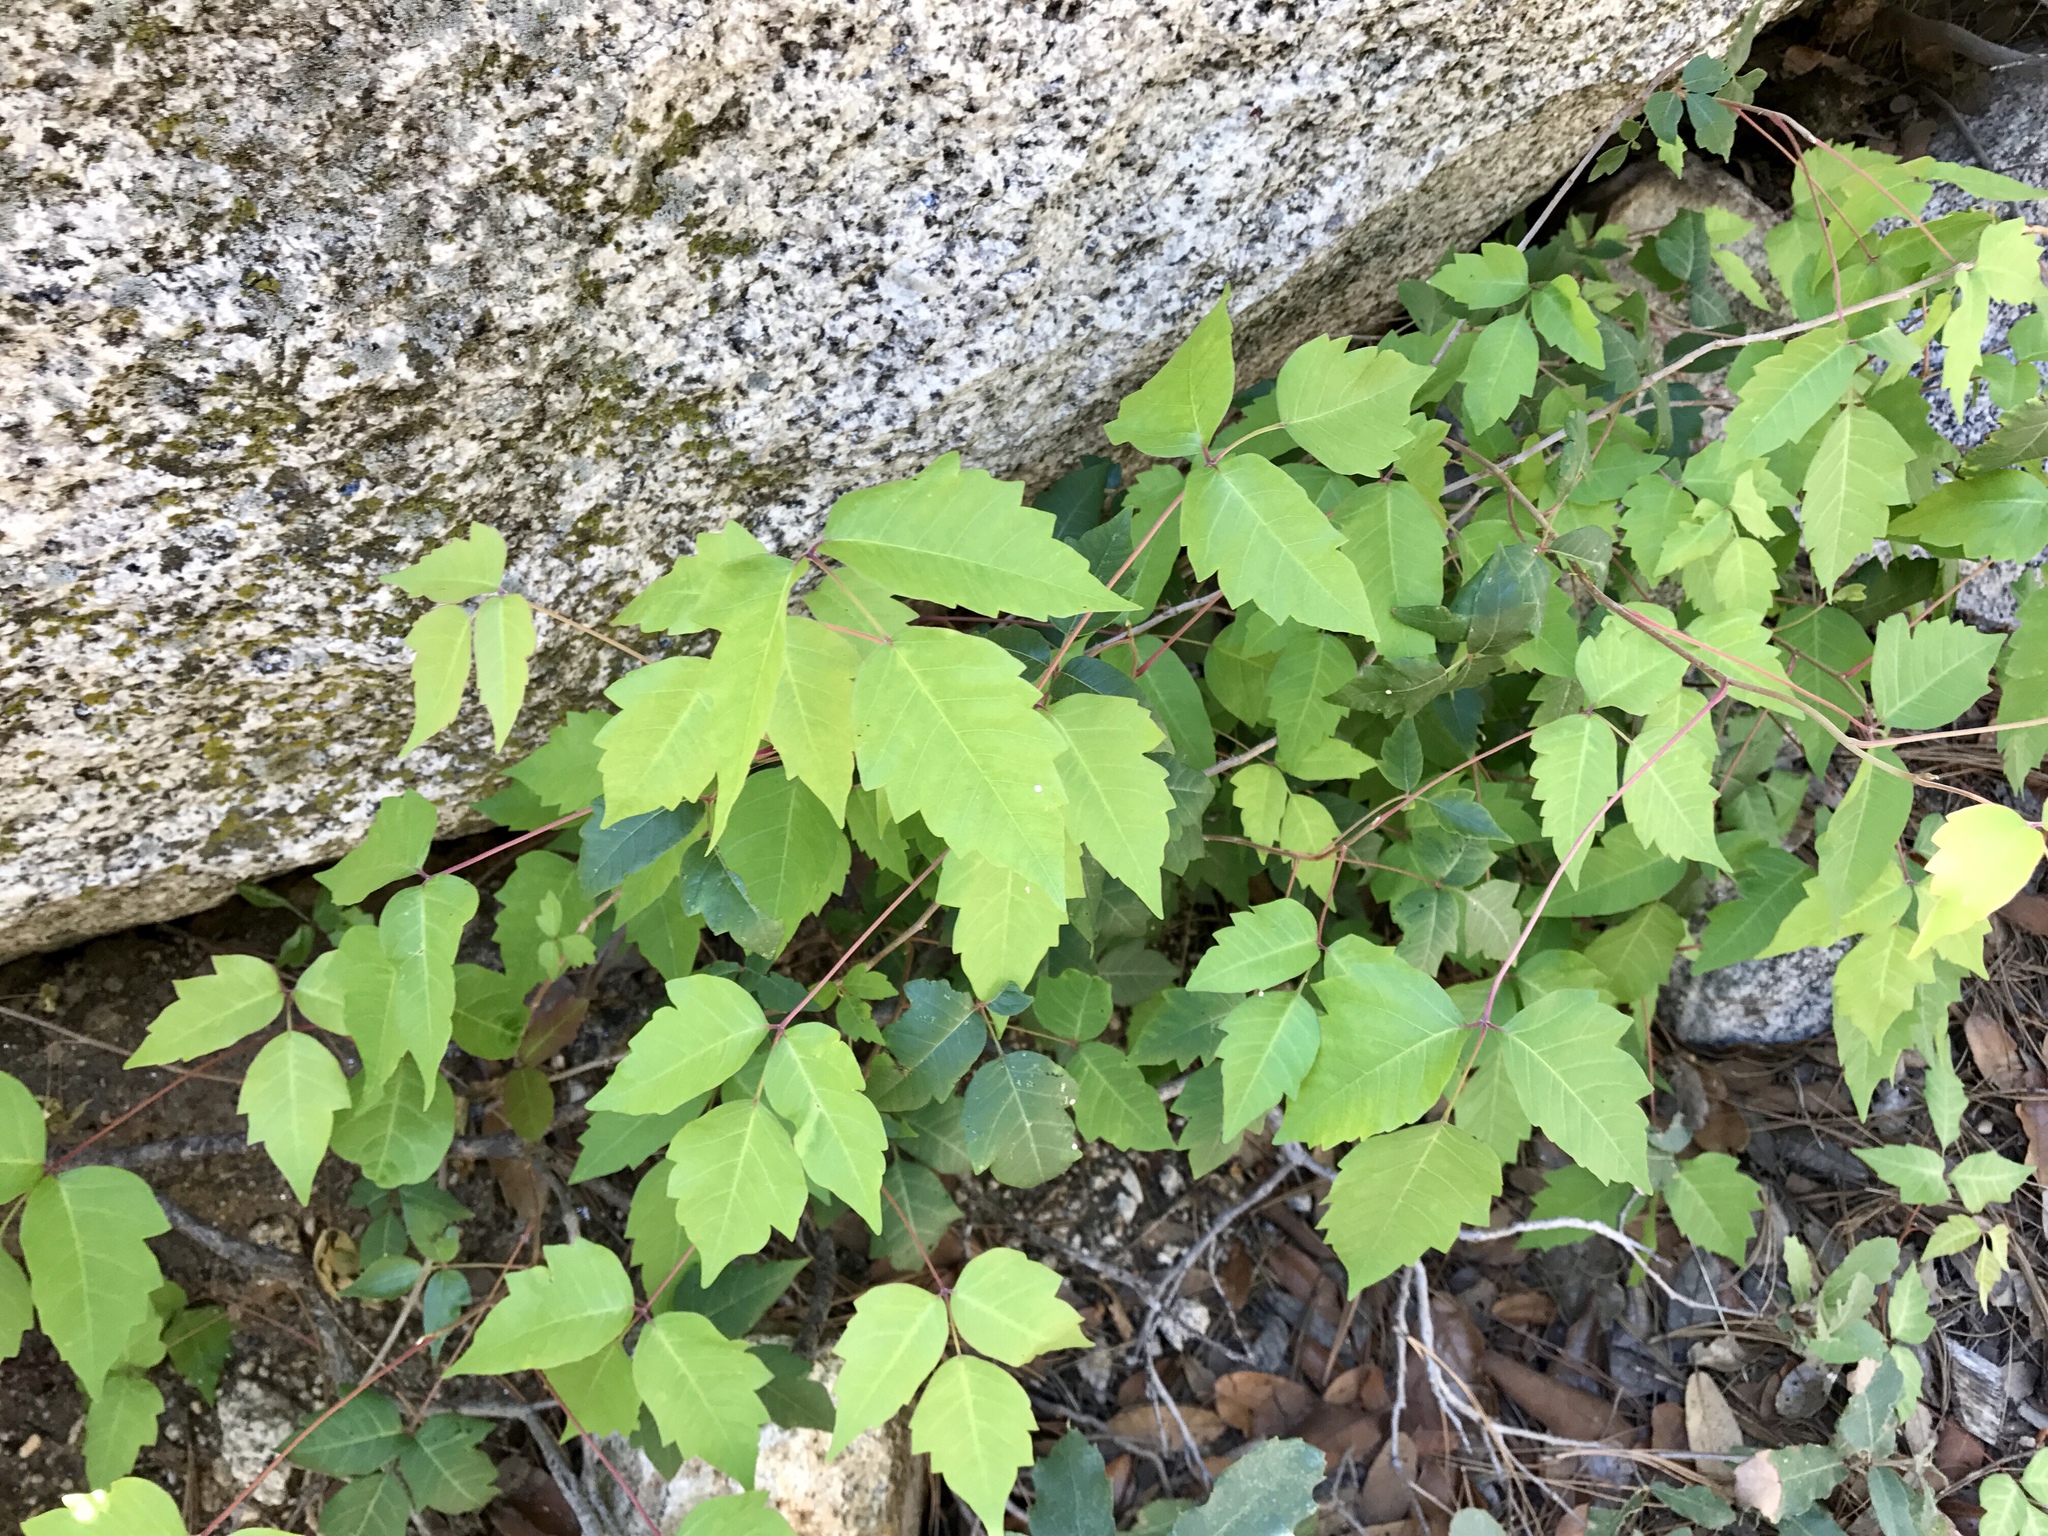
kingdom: Plantae
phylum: Tracheophyta
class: Magnoliopsida
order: Sapindales
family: Anacardiaceae
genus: Toxicodendron
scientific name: Toxicodendron radicans
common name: Poison ivy
